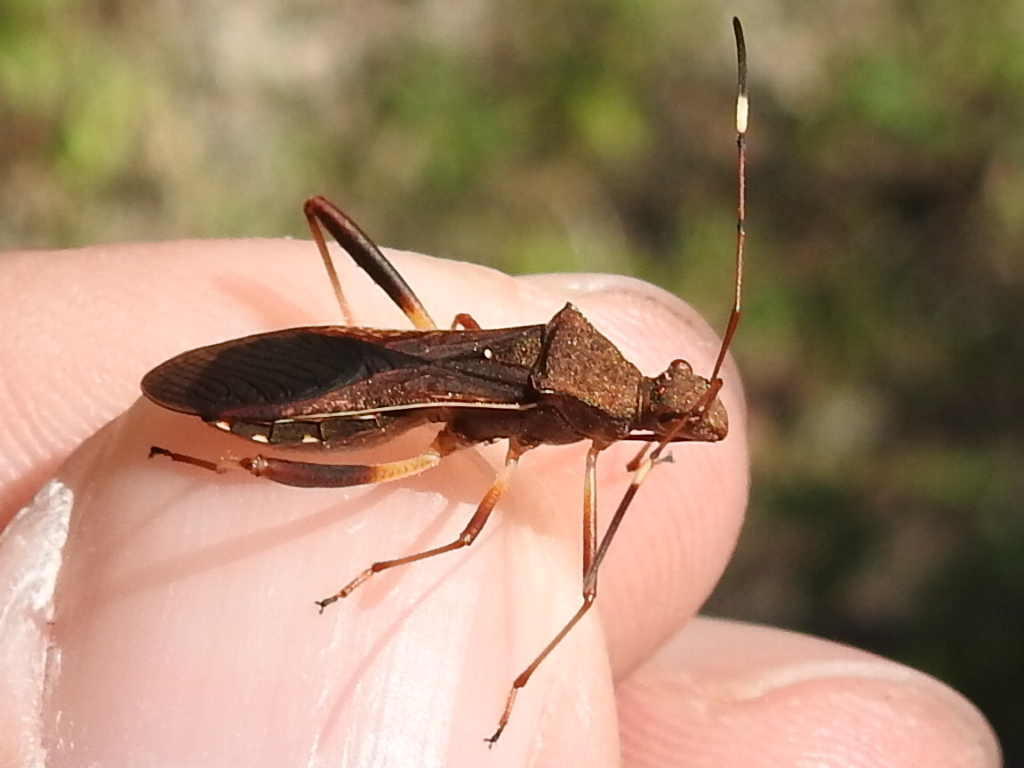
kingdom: Animalia
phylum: Arthropoda
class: Insecta
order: Hemiptera
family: Alydidae
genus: Megalotomus
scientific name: Megalotomus quinquespinosus
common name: Lupine bug
